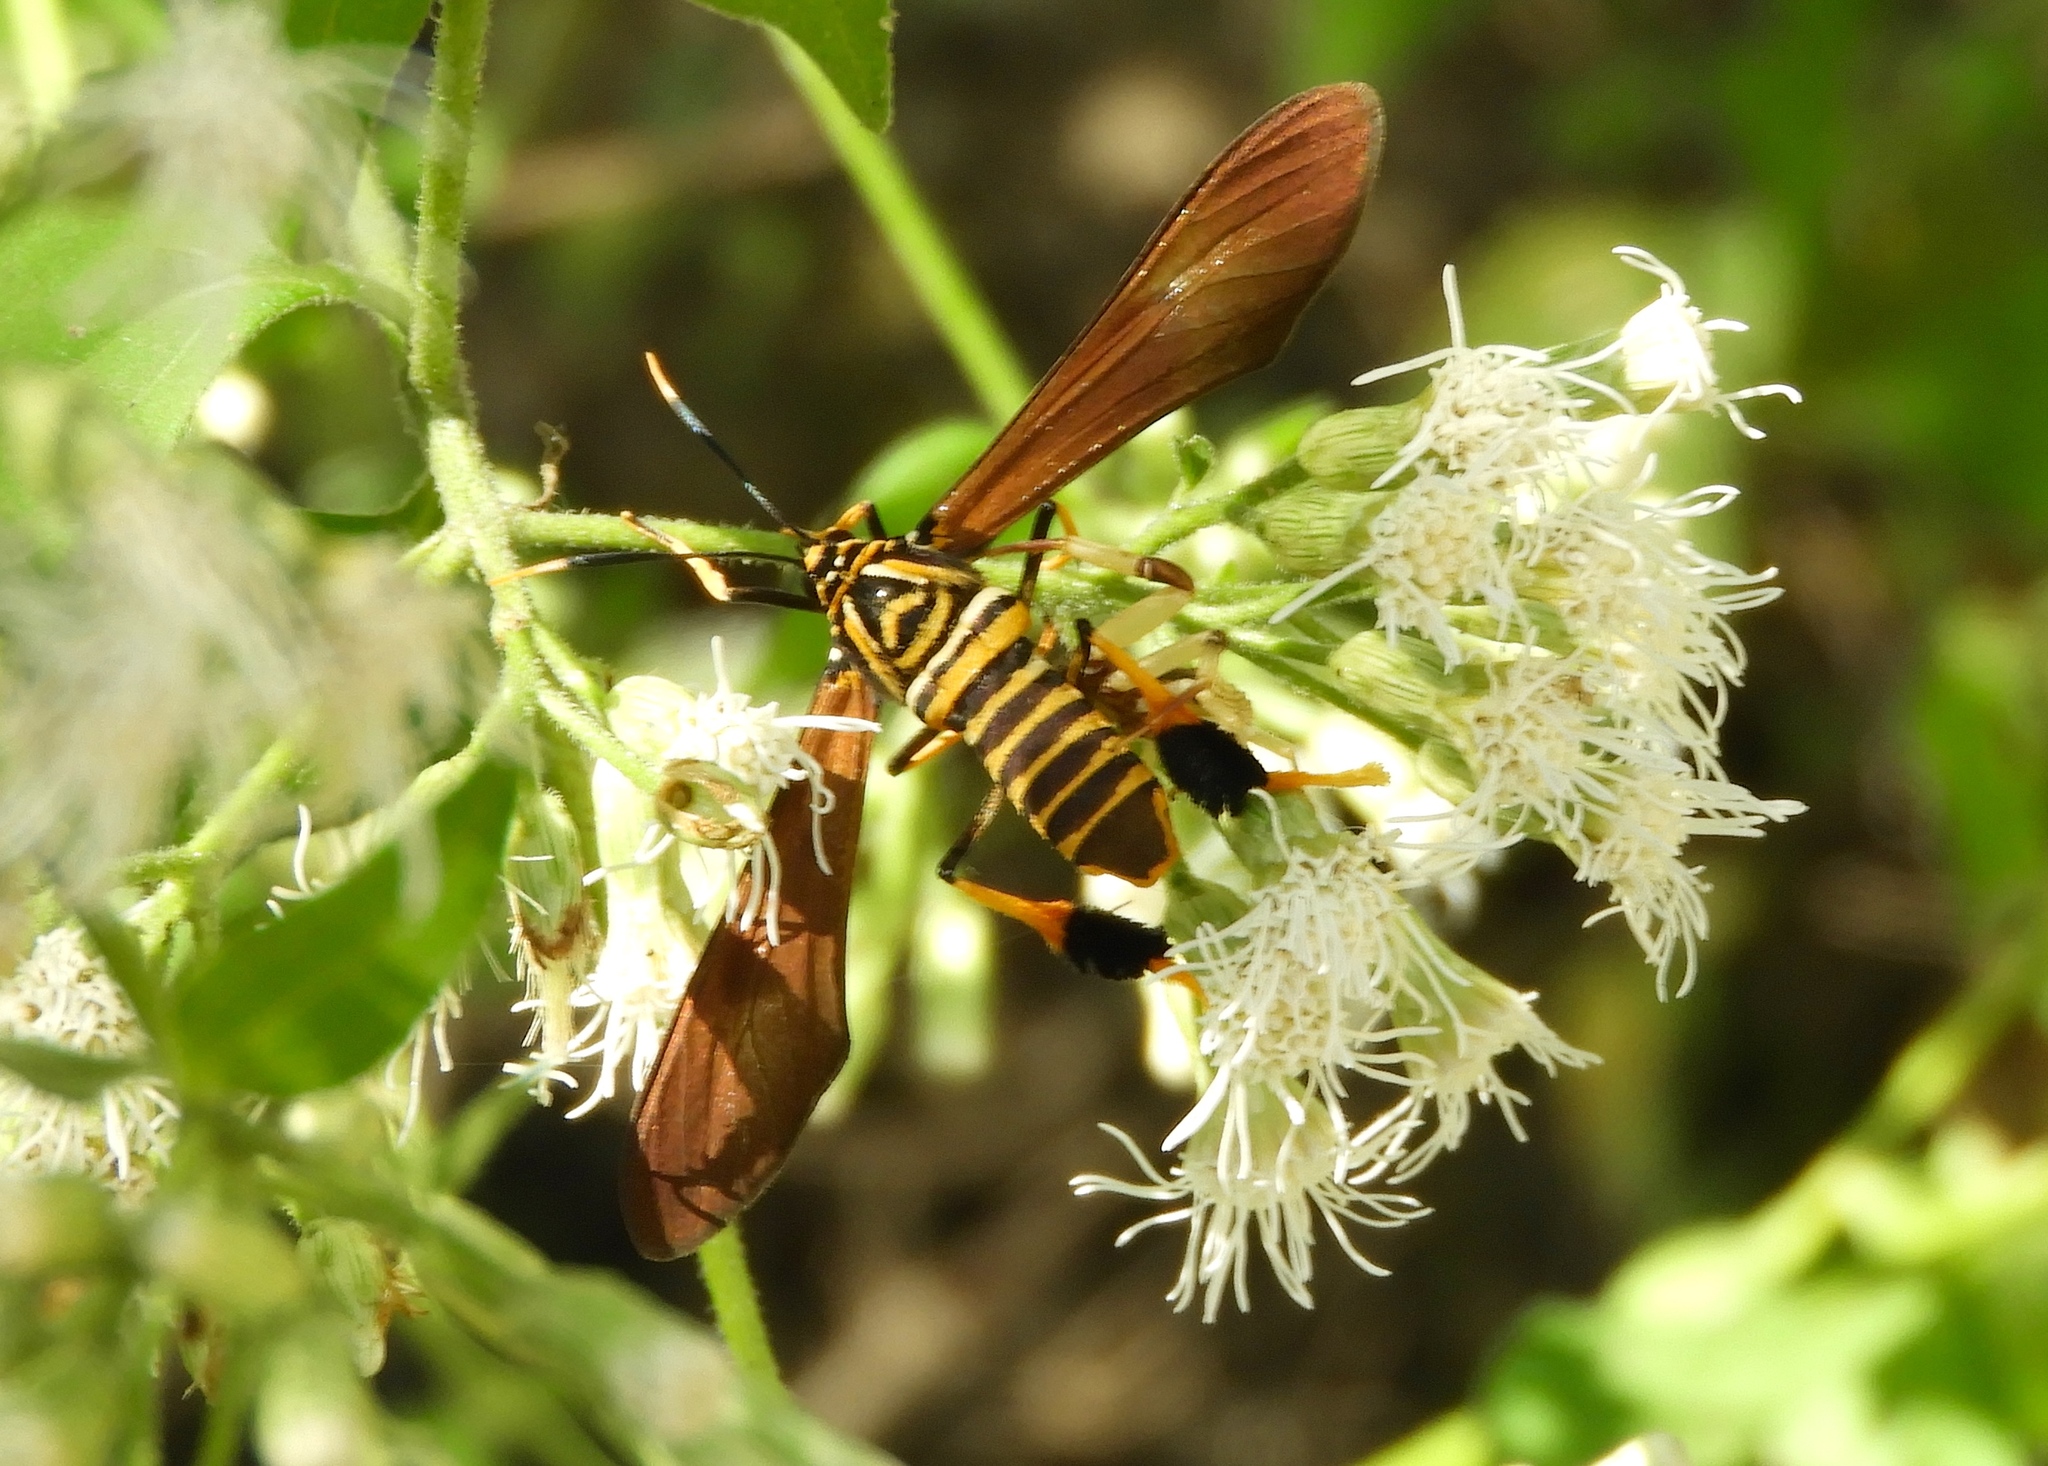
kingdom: Animalia
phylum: Arthropoda
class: Insecta
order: Lepidoptera
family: Erebidae
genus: Horama
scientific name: Horama panthalon
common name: Texas wasp moth
